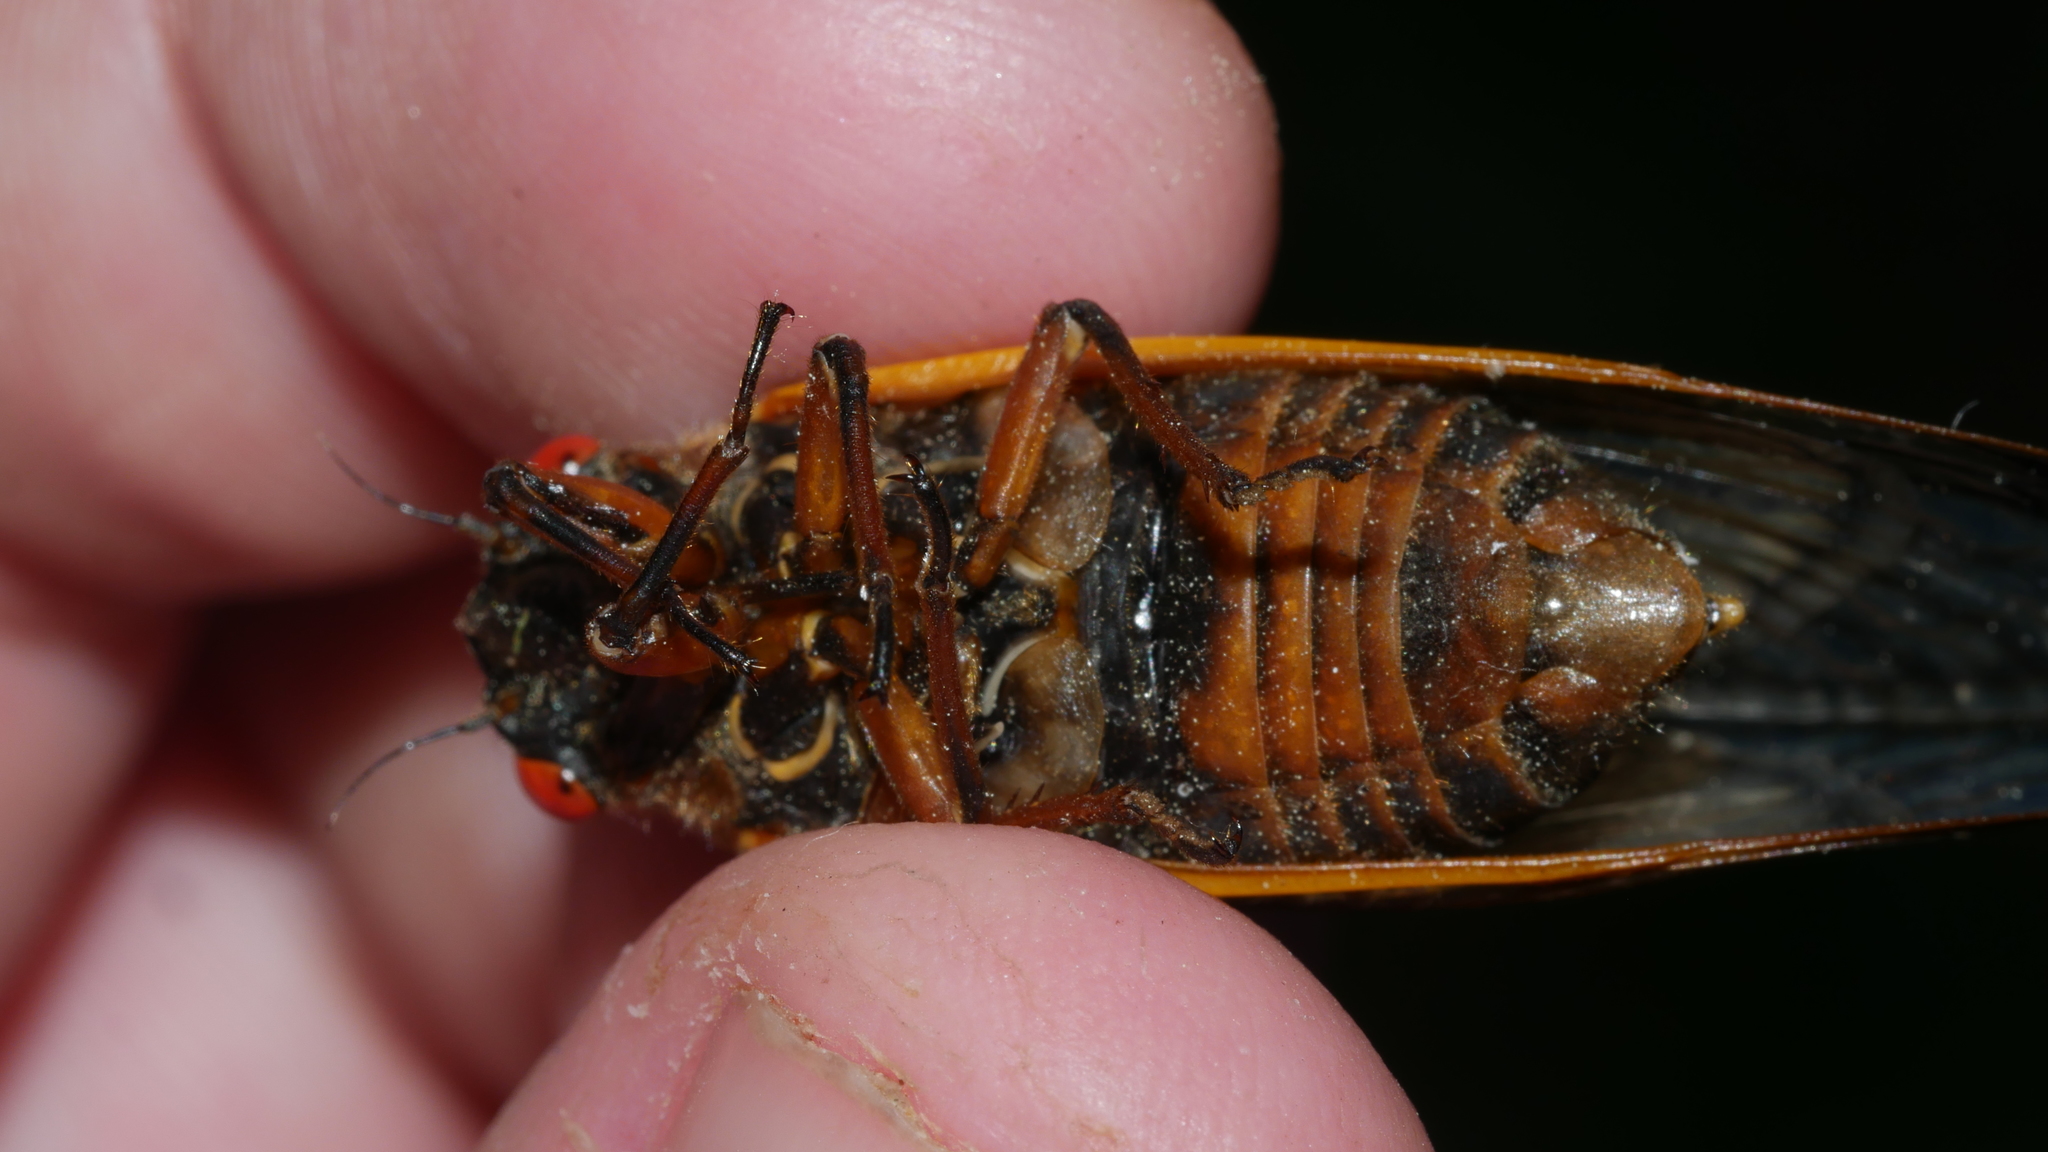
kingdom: Animalia
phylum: Arthropoda
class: Insecta
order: Hemiptera
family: Cicadidae
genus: Magicicada
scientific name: Magicicada septendecim
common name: Periodical cicada
